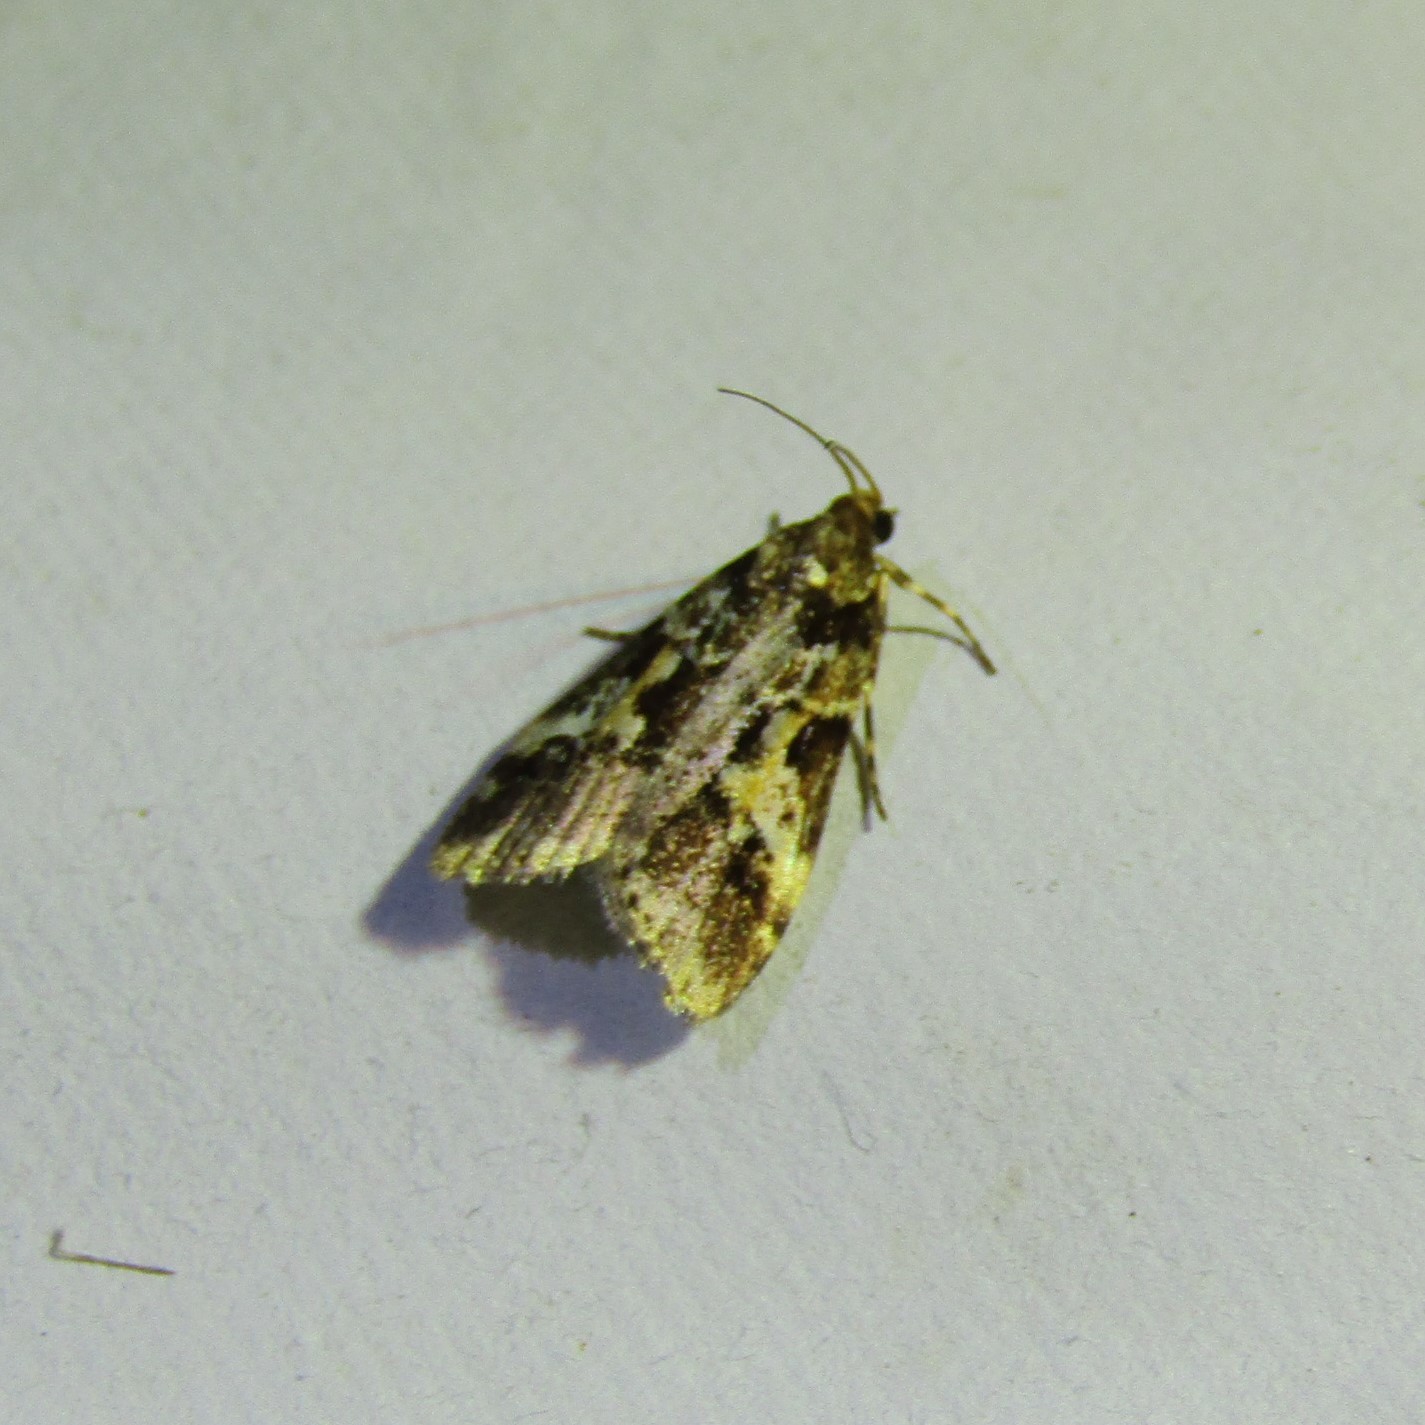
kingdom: Animalia
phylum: Arthropoda
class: Insecta
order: Lepidoptera
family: Crambidae
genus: Eudonia
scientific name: Eudonia characta
